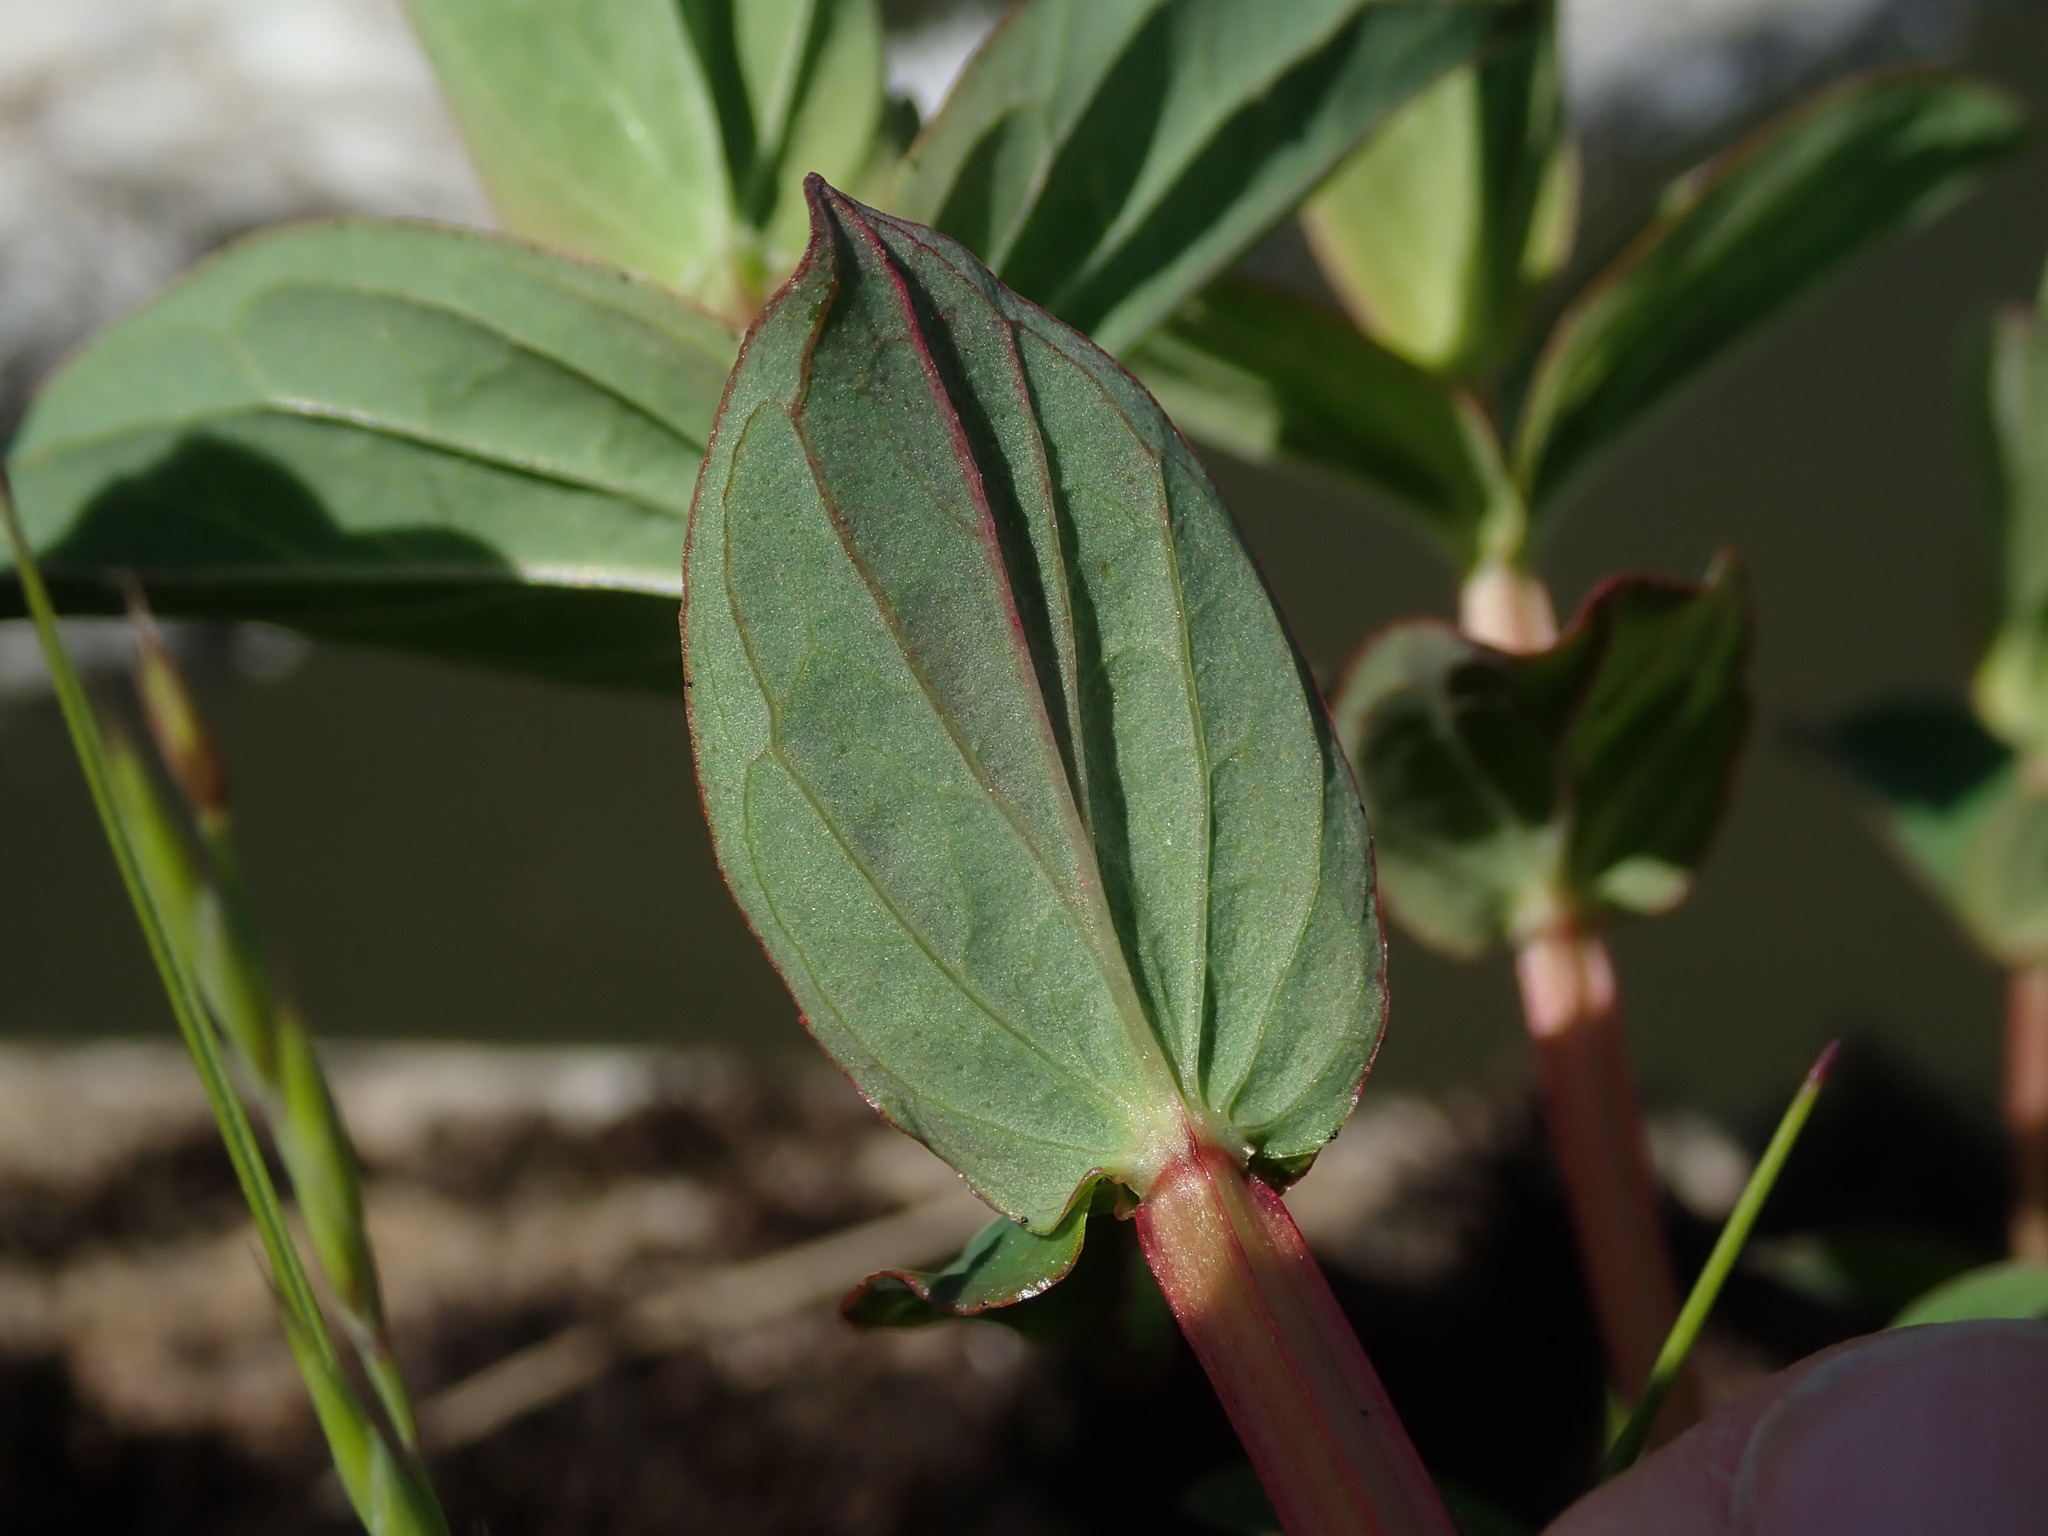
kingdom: Plantae
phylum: Tracheophyta
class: Magnoliopsida
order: Malpighiales
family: Hypericaceae
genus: Hypericum
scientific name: Hypericum tetrapterum
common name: Square-stalked st. john's-wort
